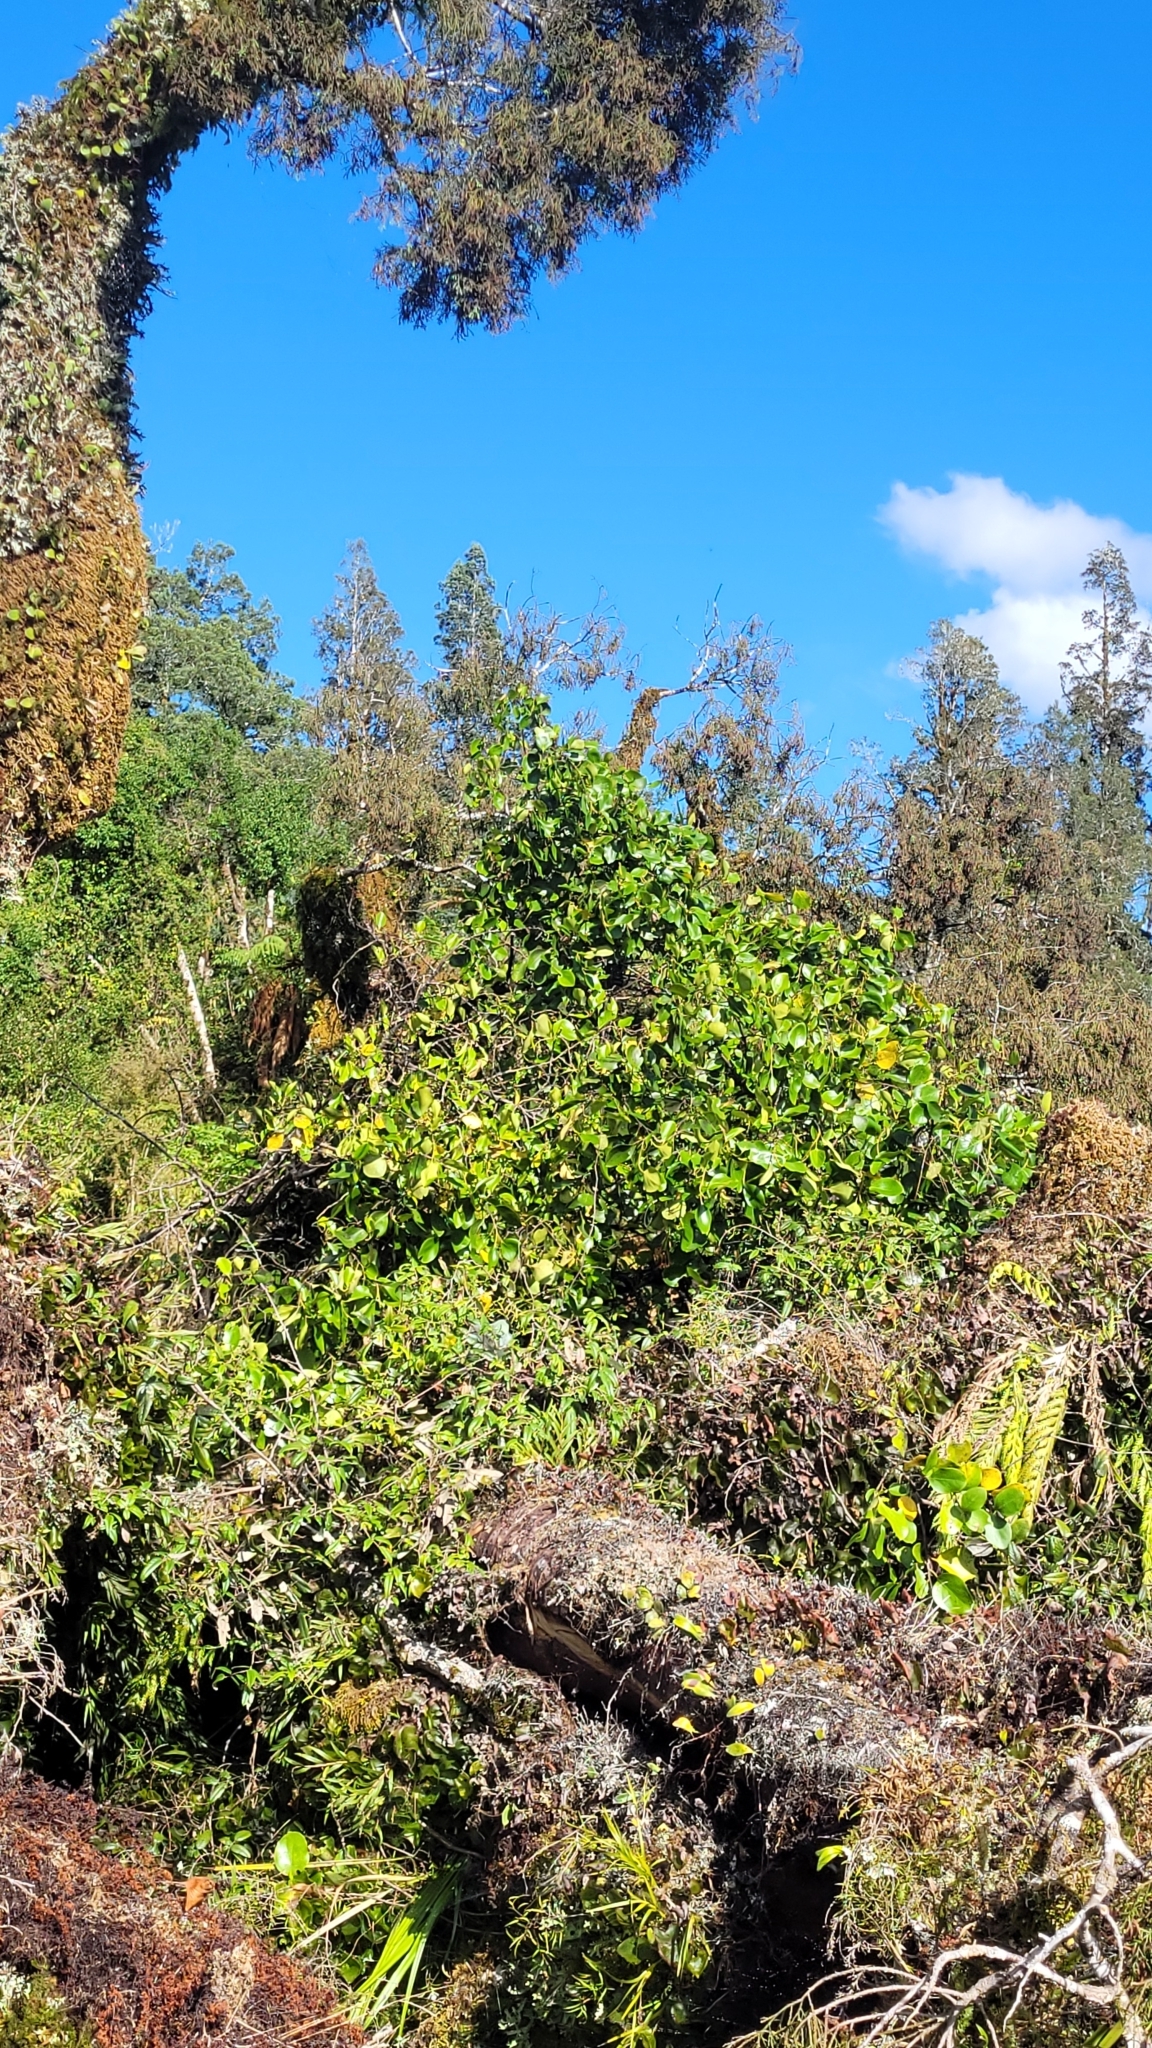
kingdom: Plantae
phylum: Tracheophyta
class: Magnoliopsida
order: Santalales
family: Loranthaceae
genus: Ileostylus
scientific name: Ileostylus micranthus
